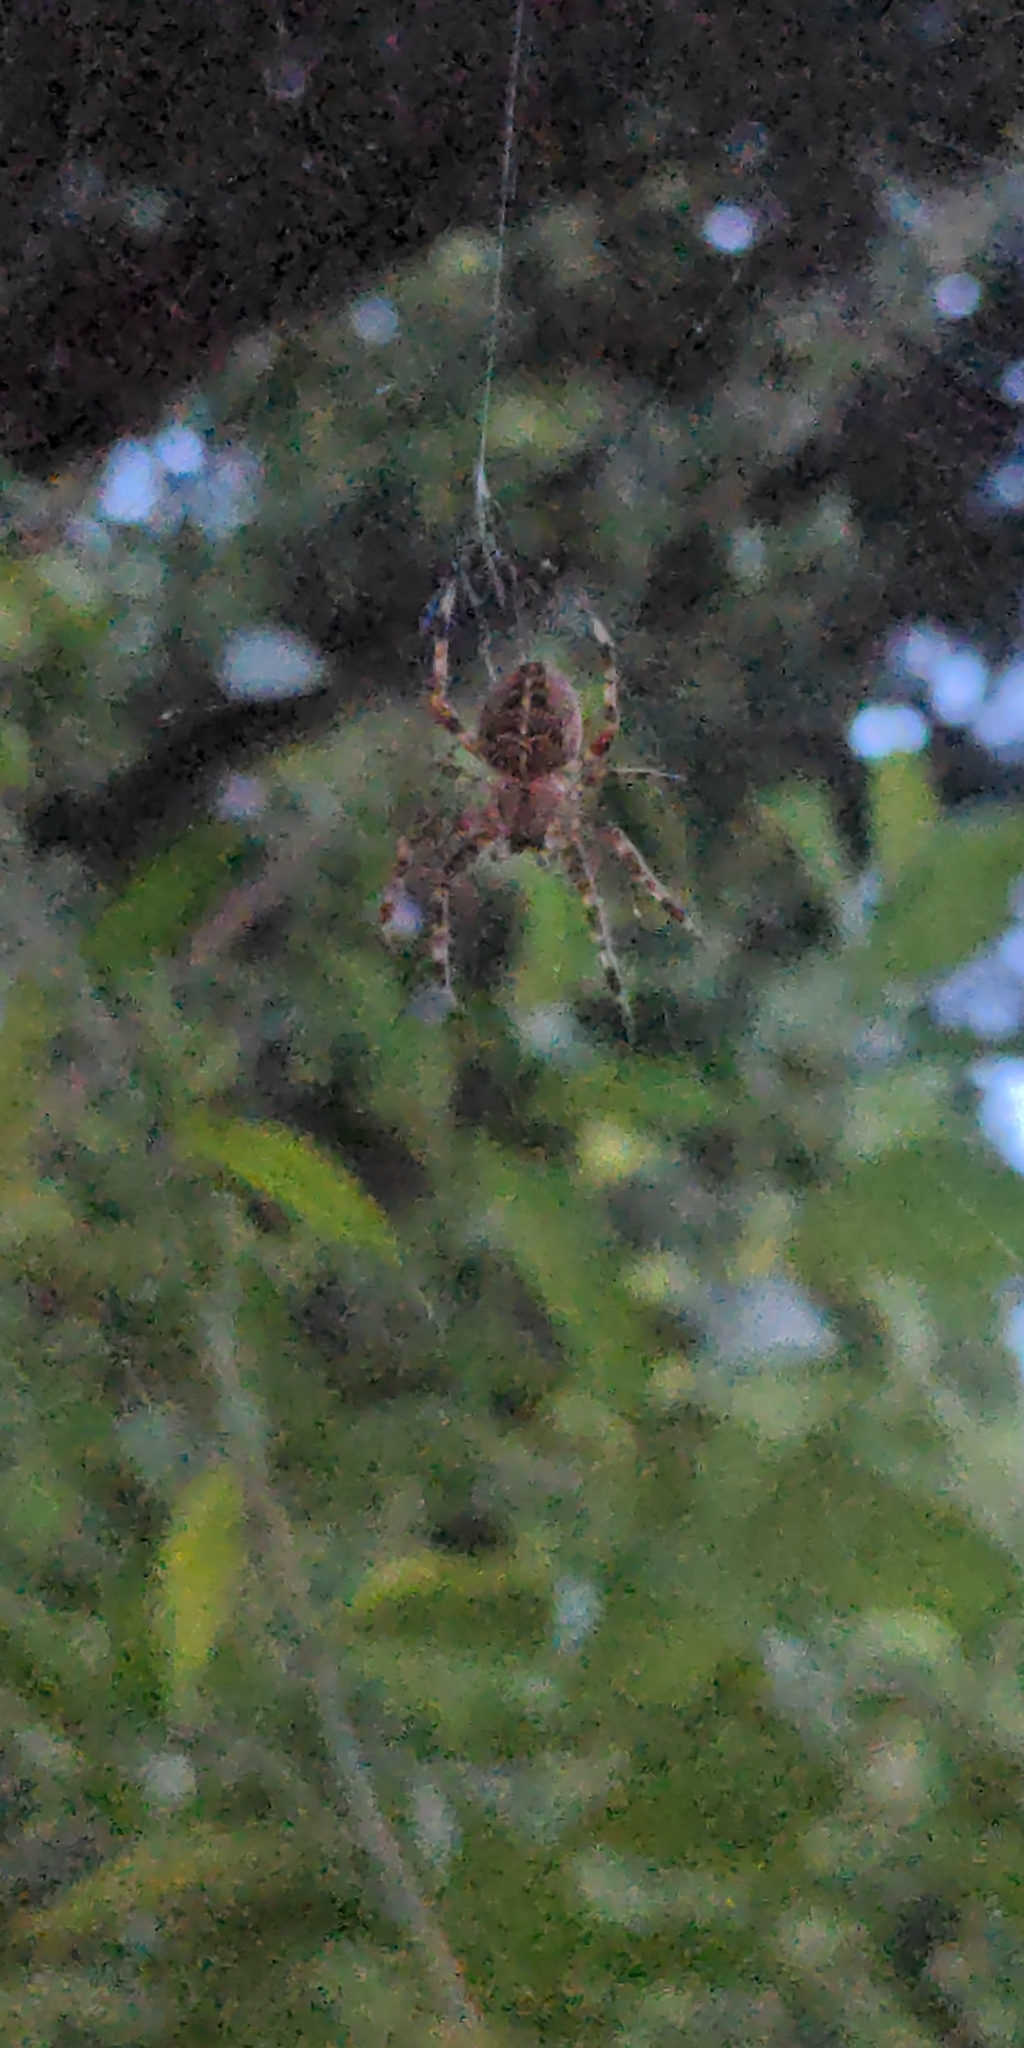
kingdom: Animalia
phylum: Arthropoda
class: Arachnida
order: Araneae
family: Araneidae
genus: Araneus
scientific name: Araneus diadematus
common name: Cross orbweaver
